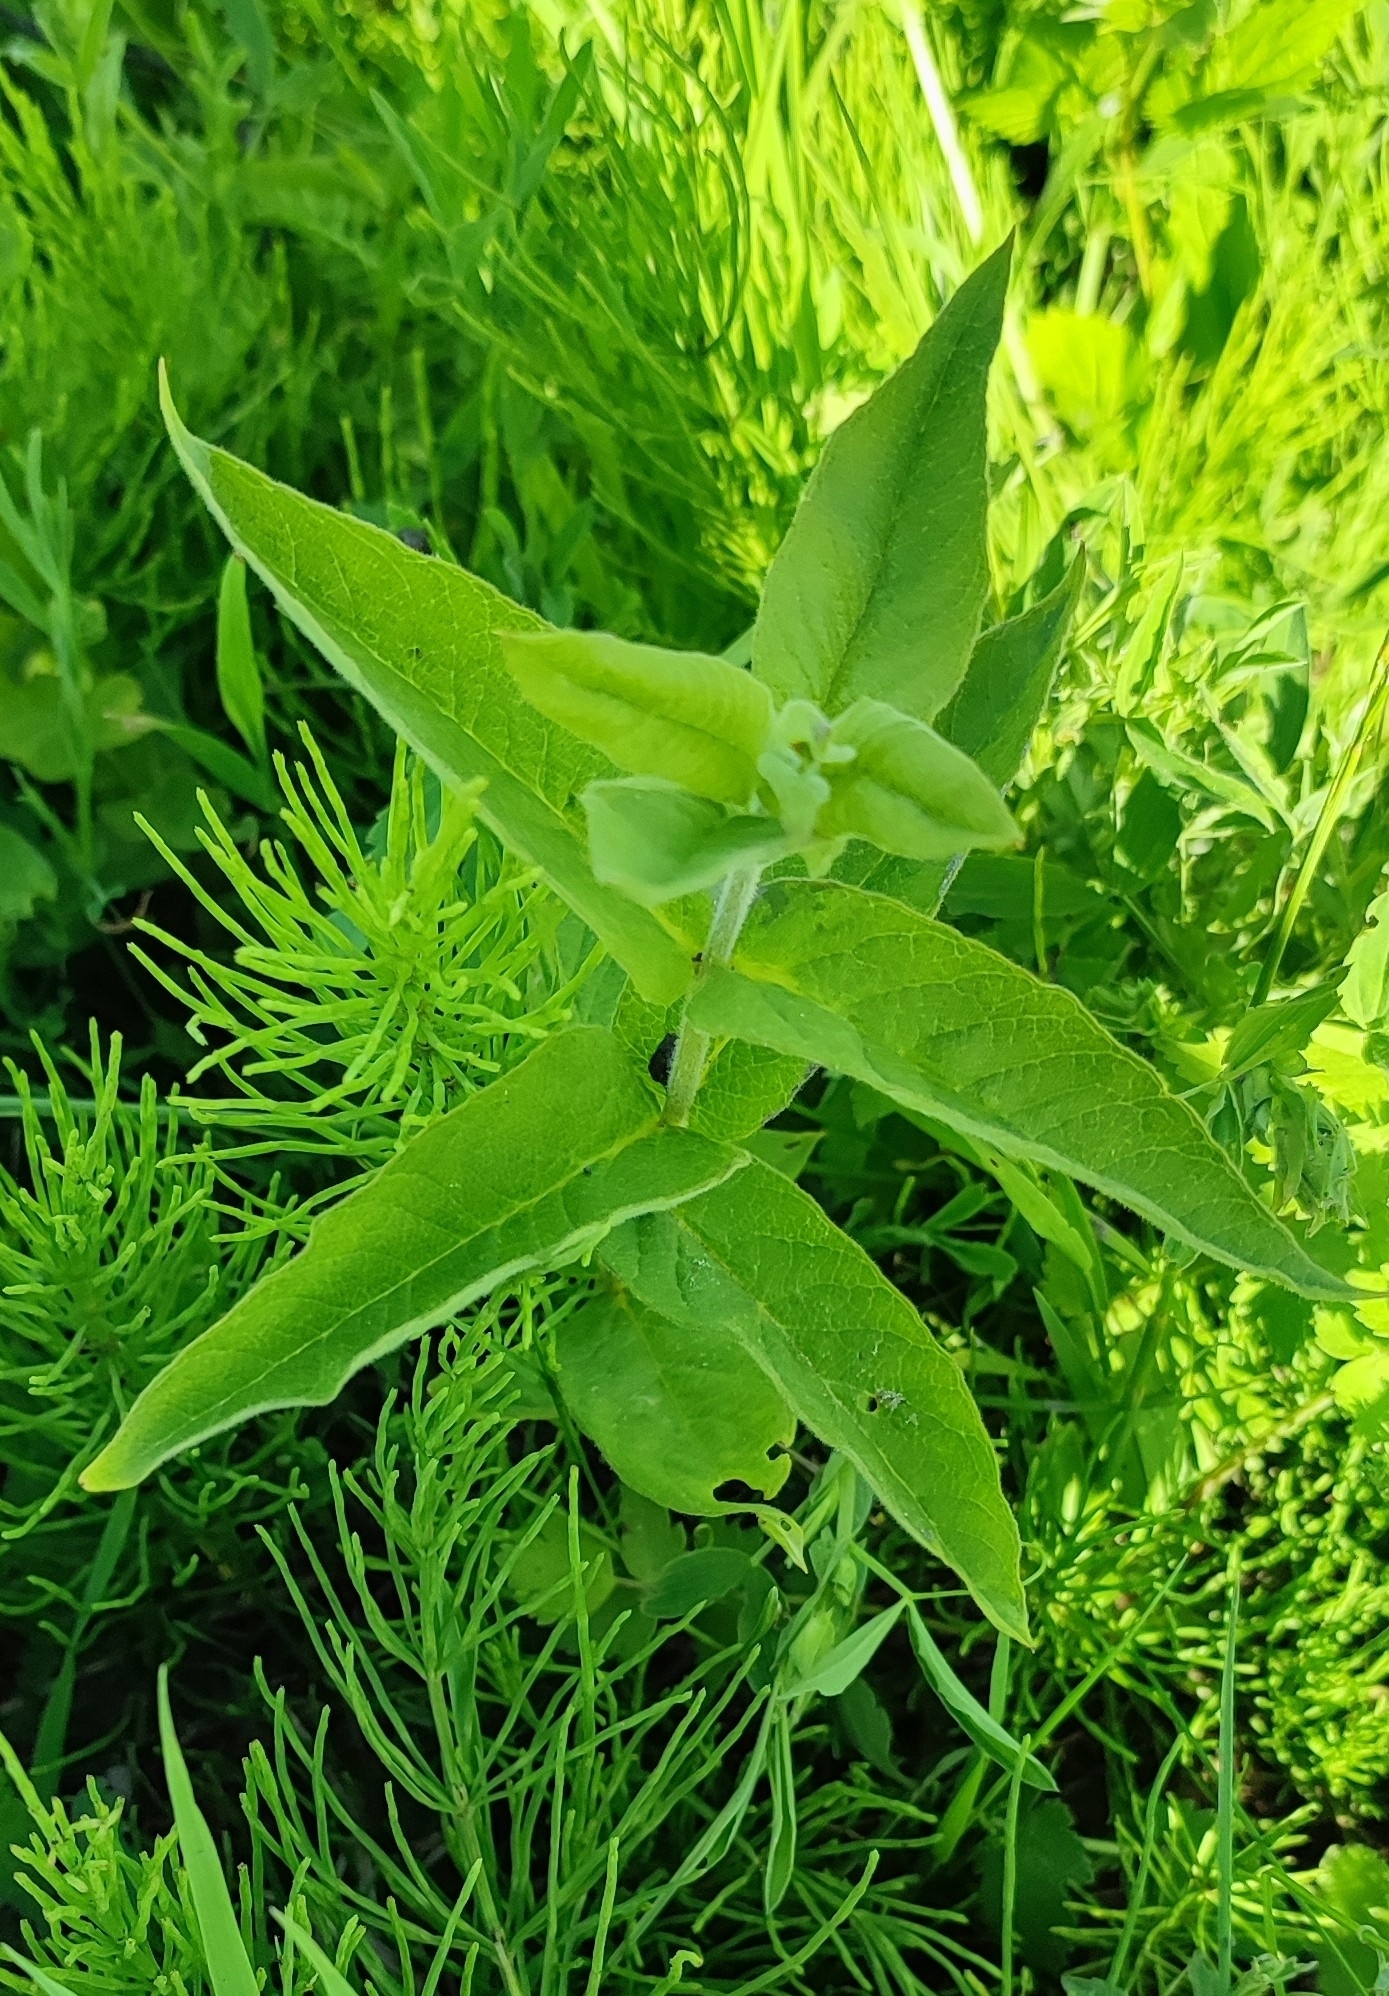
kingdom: Plantae
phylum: Tracheophyta
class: Magnoliopsida
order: Ericales
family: Primulaceae
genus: Lysimachia
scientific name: Lysimachia vulgaris
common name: Yellow loosestrife
